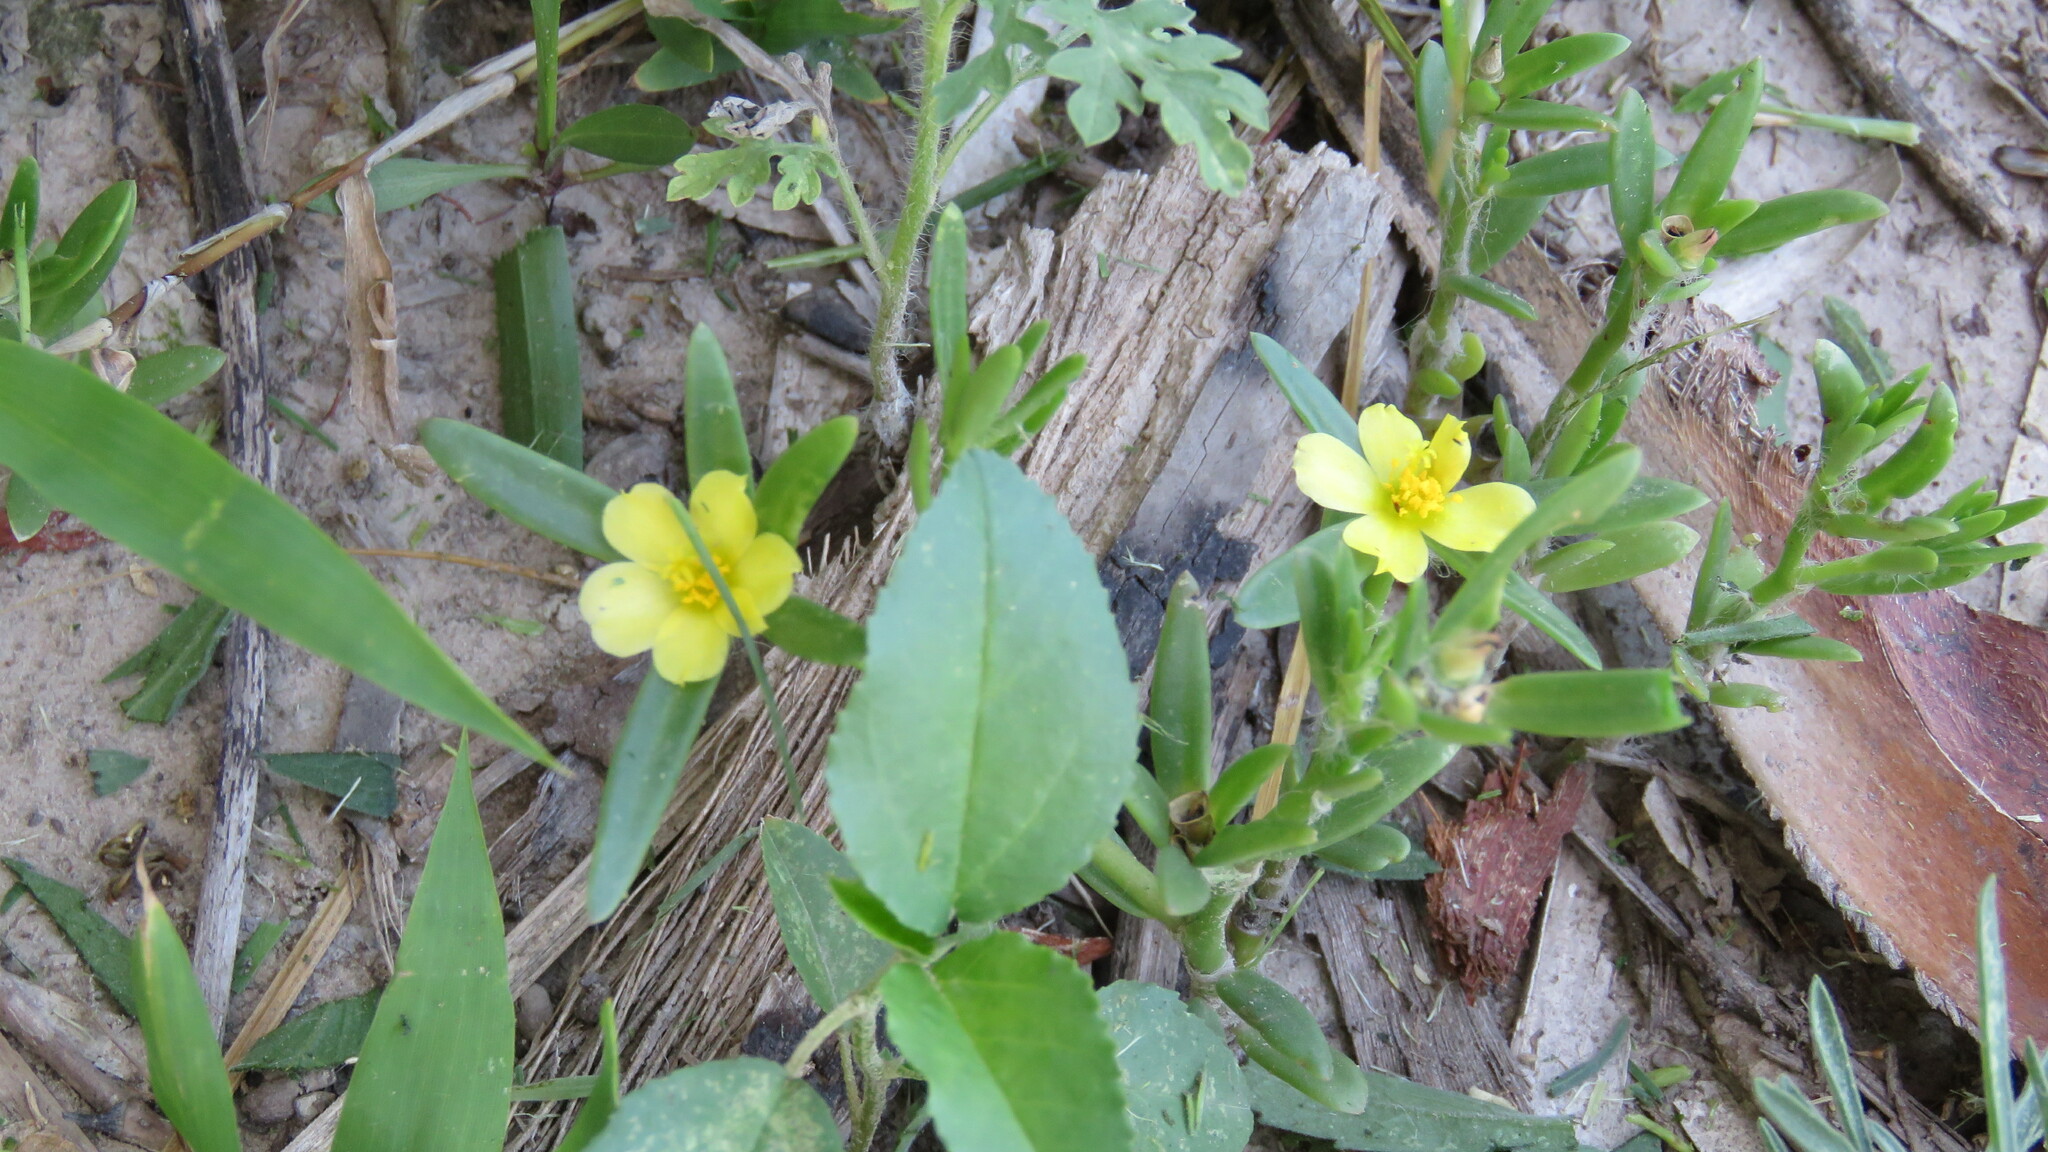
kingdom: Plantae
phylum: Tracheophyta
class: Magnoliopsida
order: Caryophyllales
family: Portulacaceae
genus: Portulaca
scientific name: Portulaca cryptopetala
